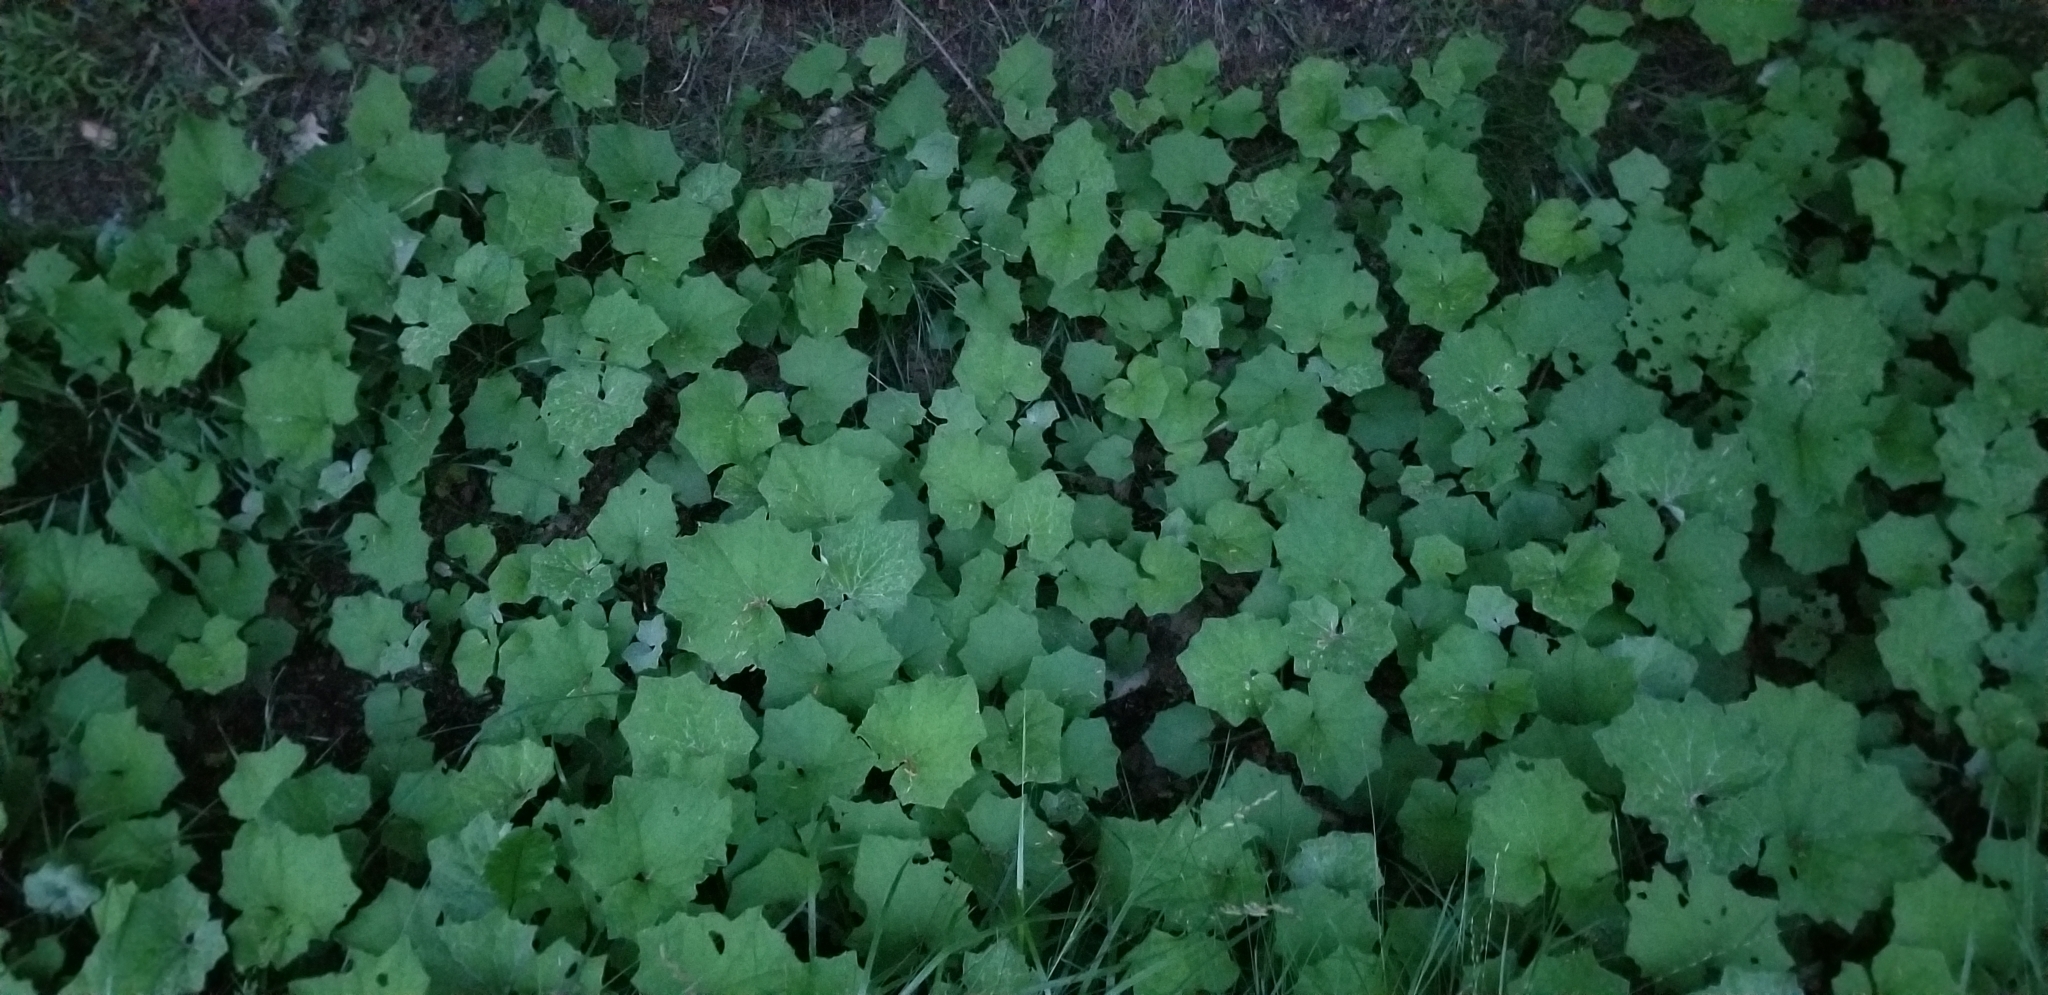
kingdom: Plantae
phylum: Tracheophyta
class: Magnoliopsida
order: Asterales
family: Asteraceae
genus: Tussilago
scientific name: Tussilago farfara
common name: Coltsfoot
